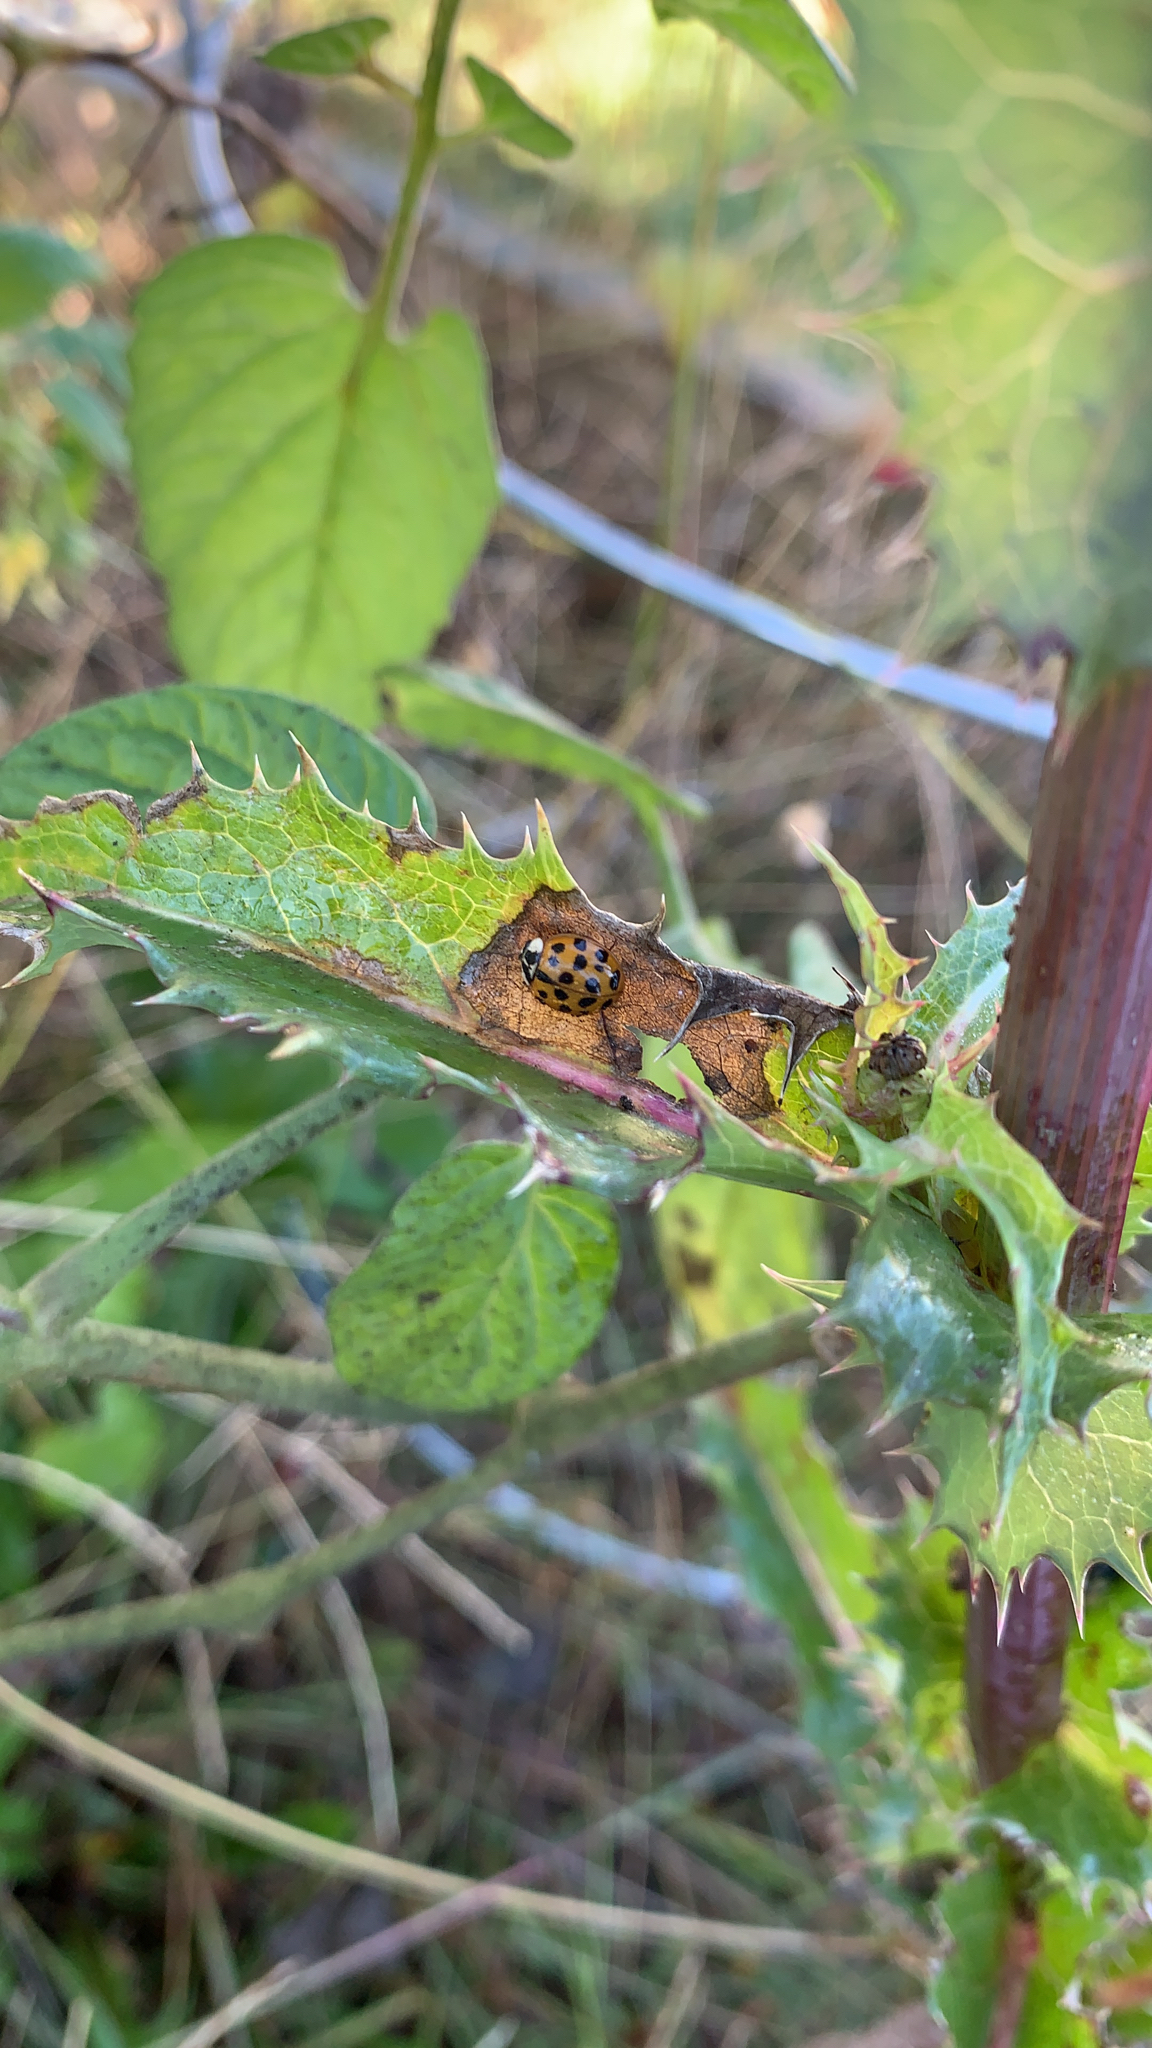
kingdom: Animalia
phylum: Arthropoda
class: Insecta
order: Coleoptera
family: Coccinellidae
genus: Harmonia
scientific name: Harmonia axyridis
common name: Harlequin ladybird
